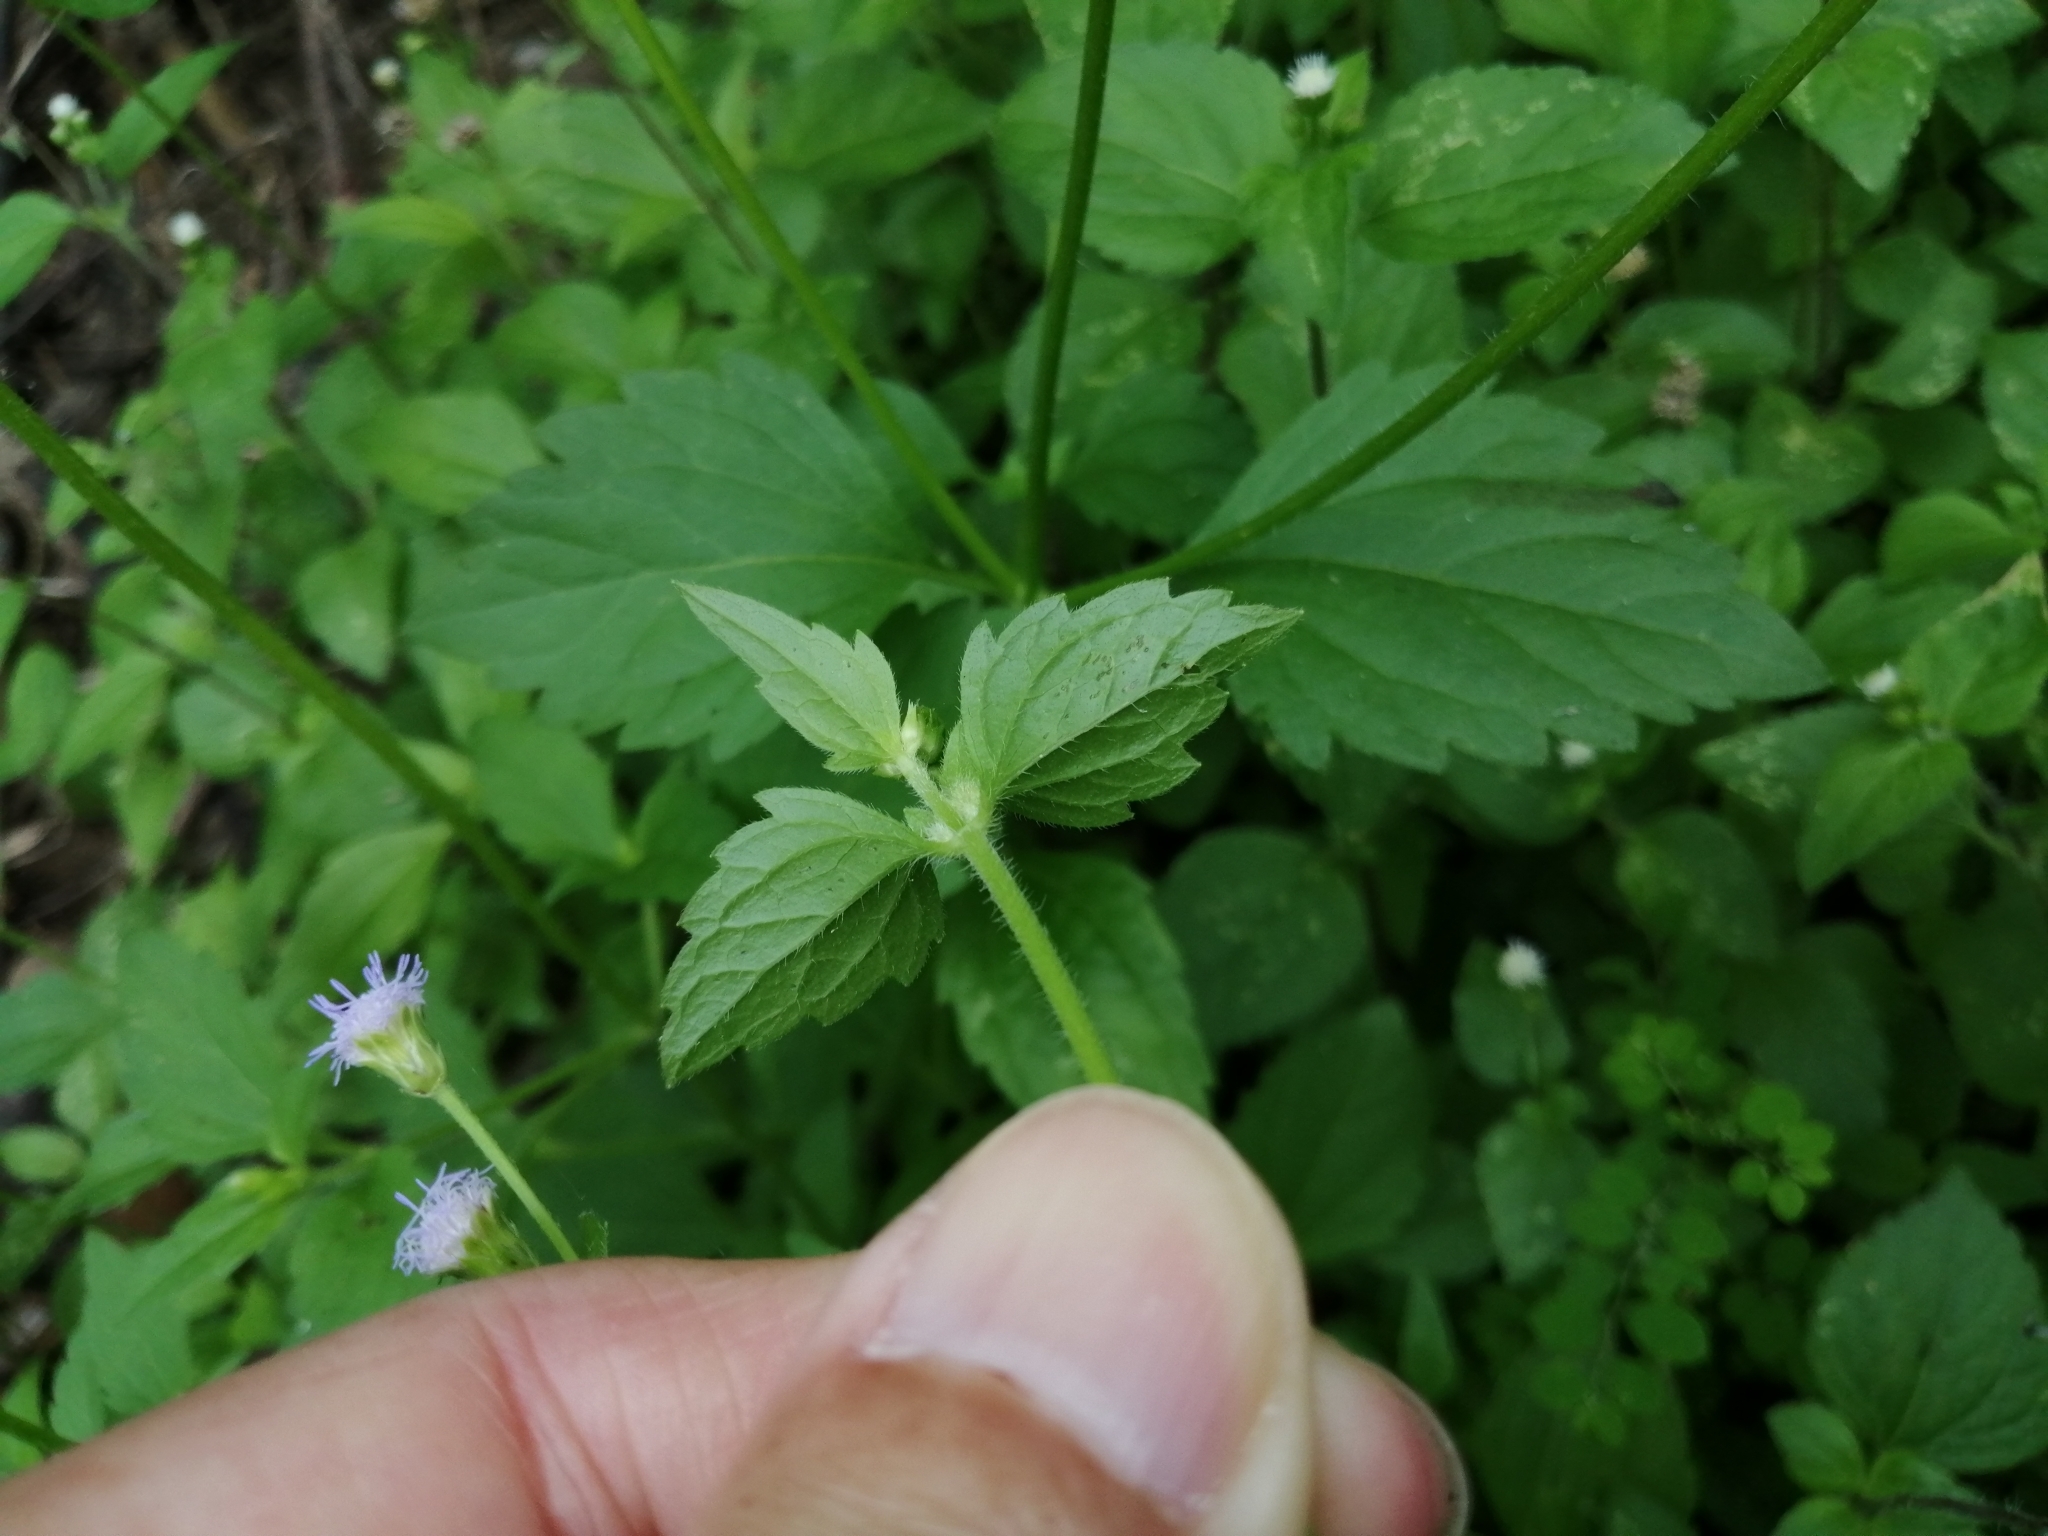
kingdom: Plantae
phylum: Tracheophyta
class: Magnoliopsida
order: Asterales
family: Asteraceae
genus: Praxelis
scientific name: Praxelis clematidea
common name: Praxelis
